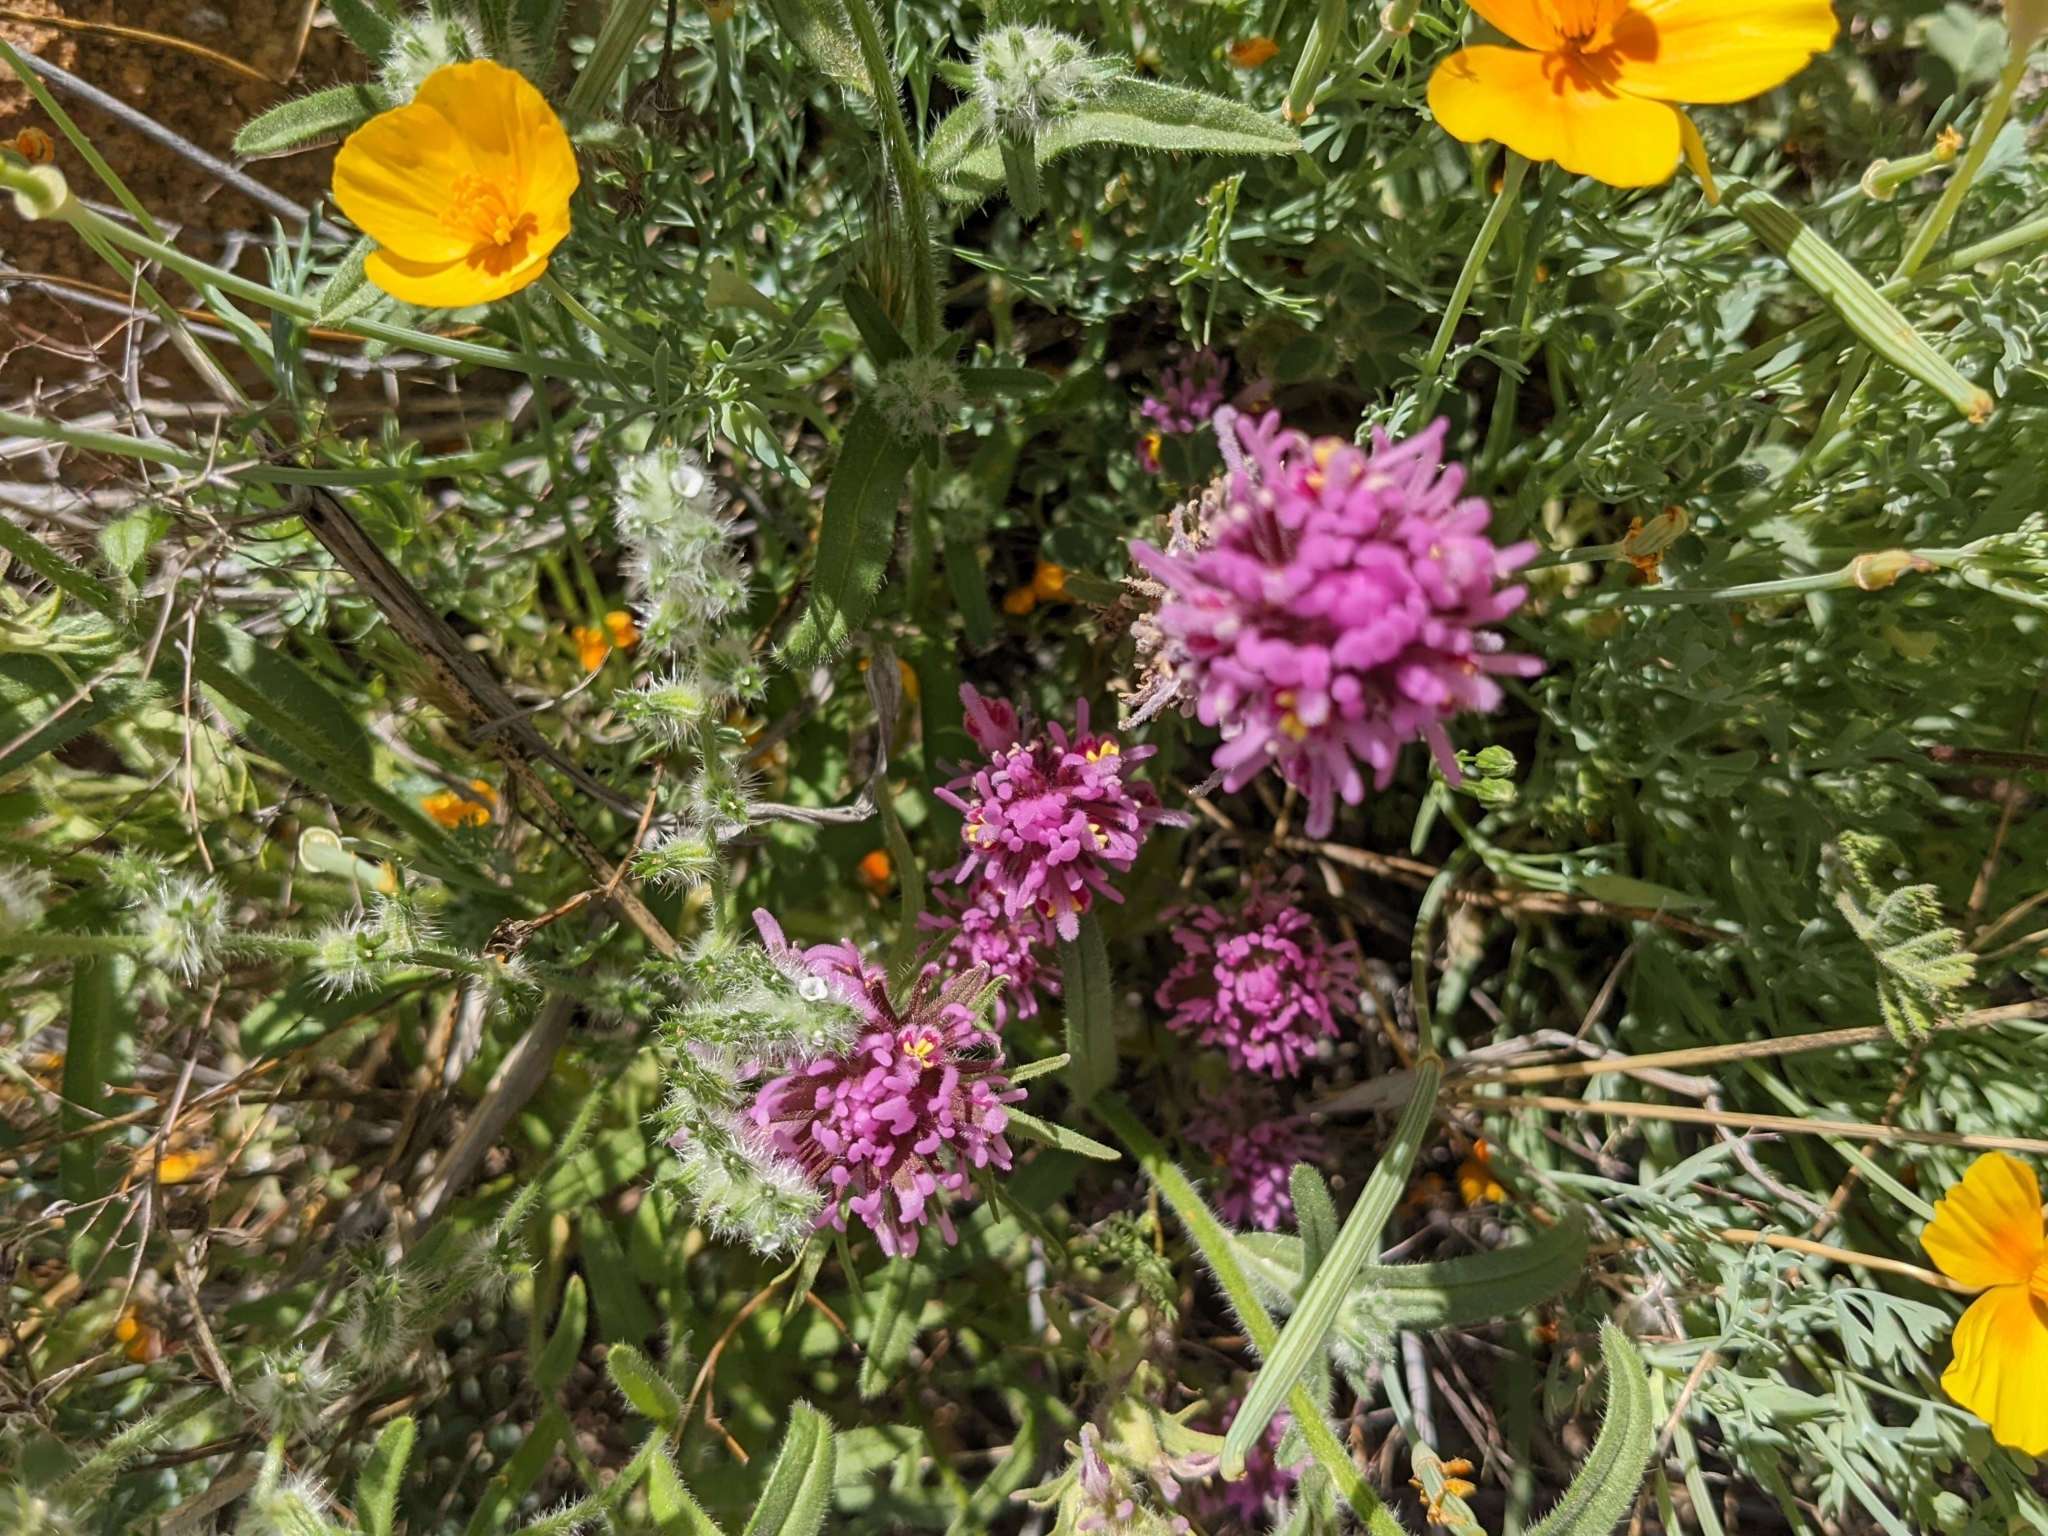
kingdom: Plantae
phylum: Tracheophyta
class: Magnoliopsida
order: Lamiales
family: Orobanchaceae
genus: Castilleja
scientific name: Castilleja exserta
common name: Purple owl-clover
